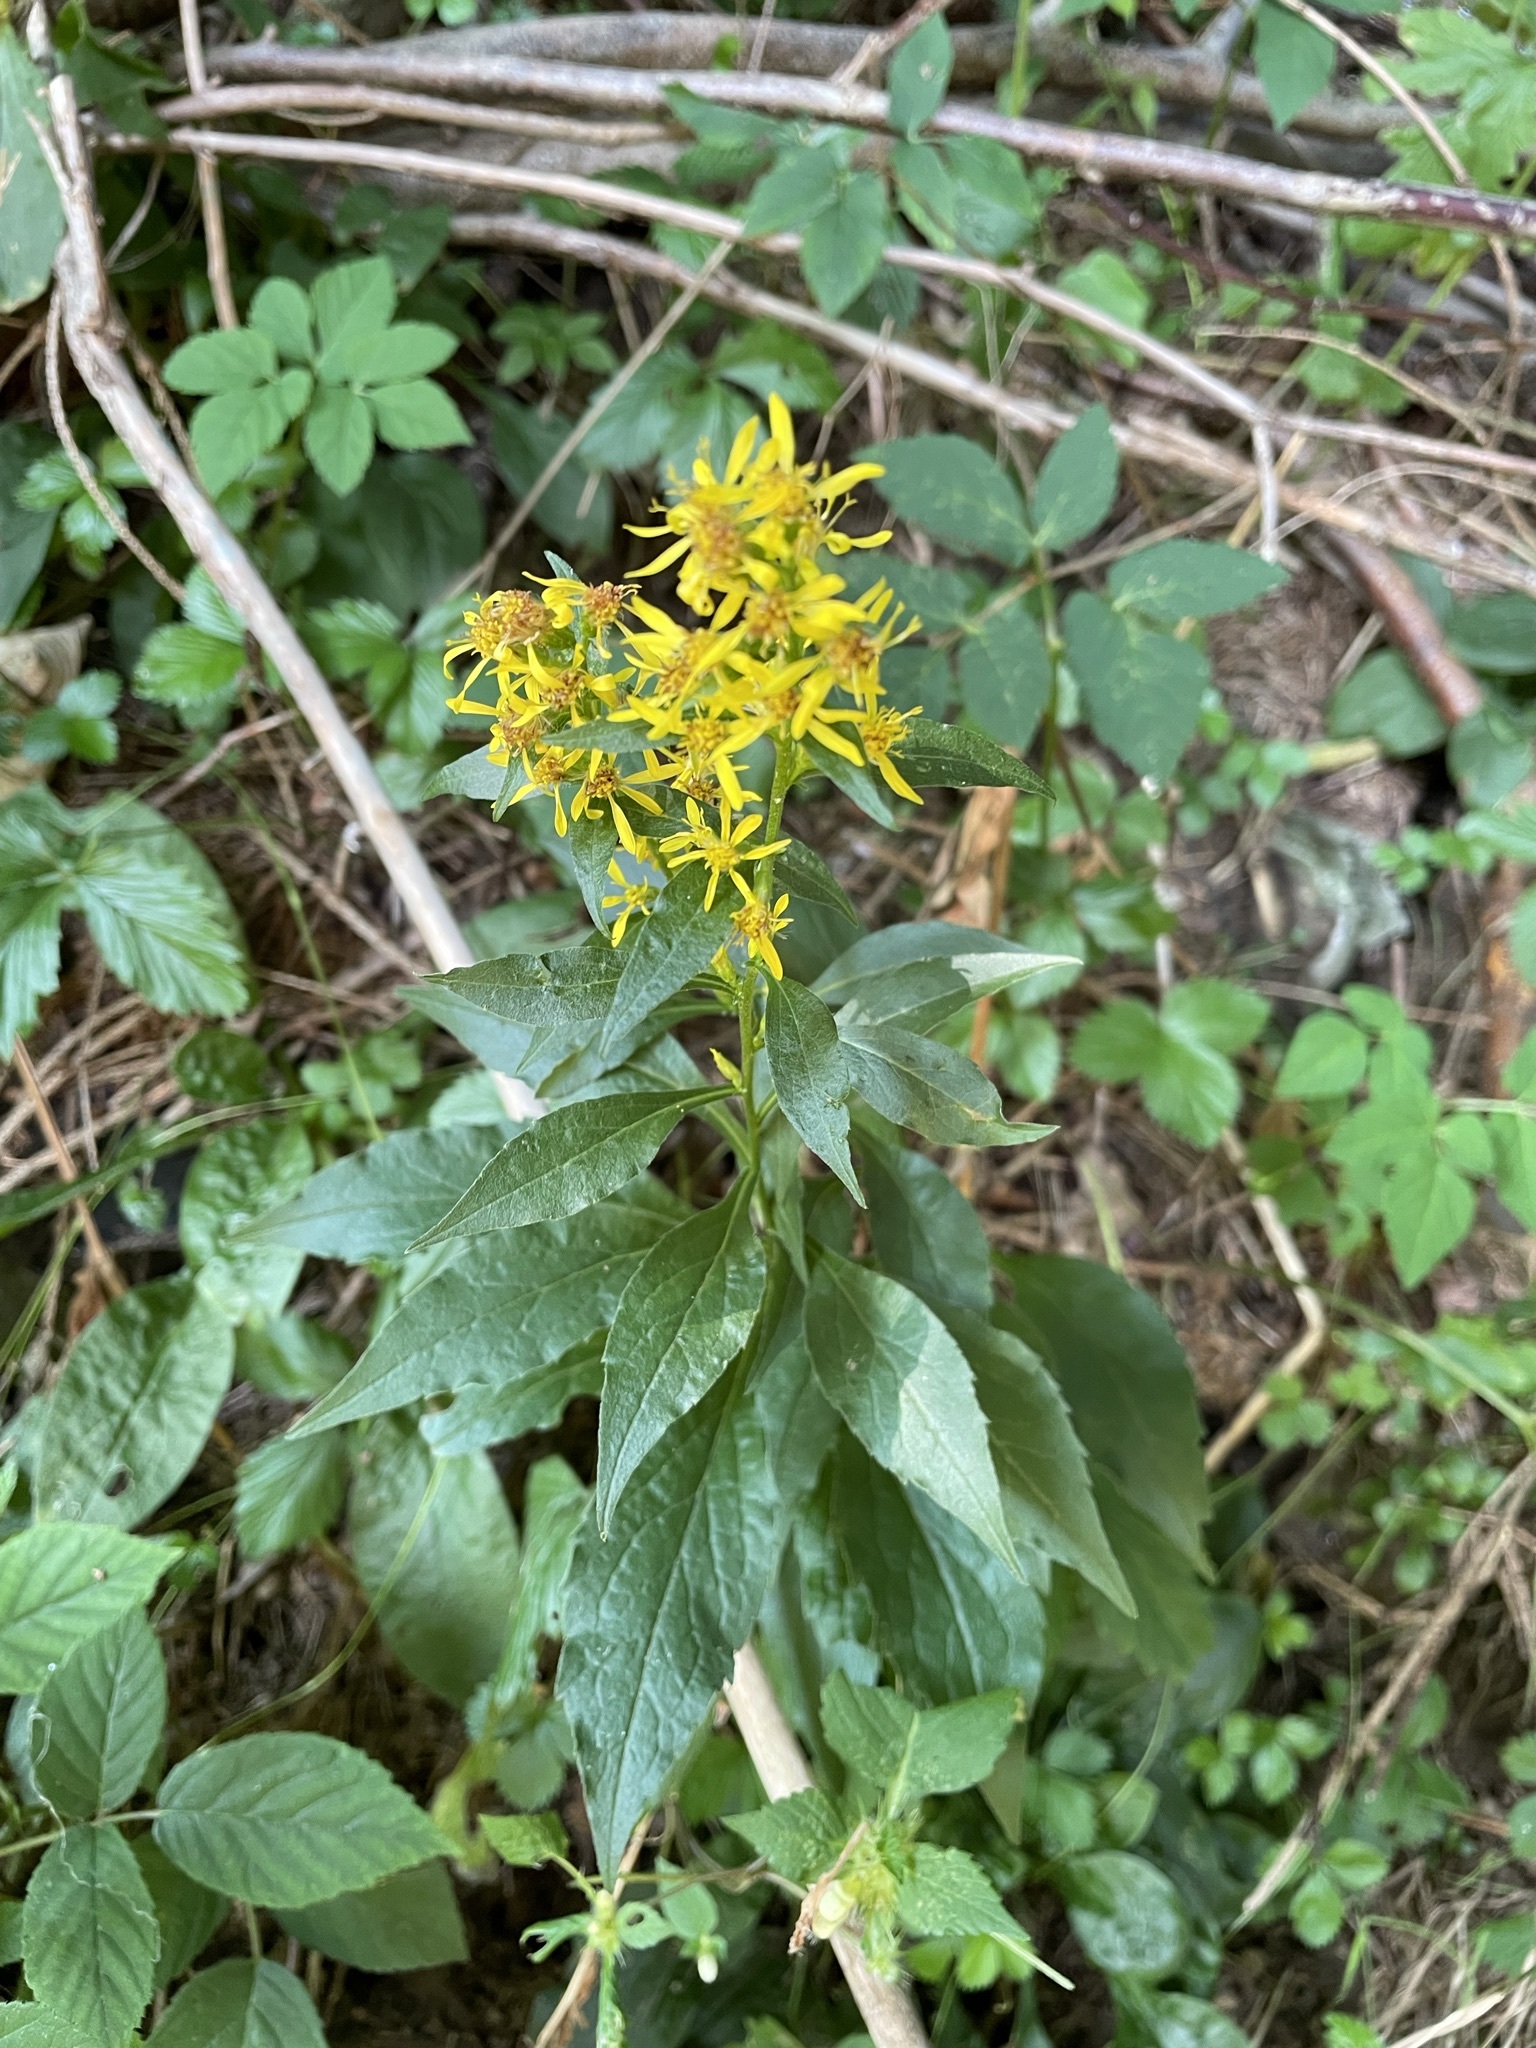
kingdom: Plantae
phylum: Tracheophyta
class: Magnoliopsida
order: Asterales
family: Asteraceae
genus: Solidago
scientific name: Solidago virgaurea
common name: Goldenrod
